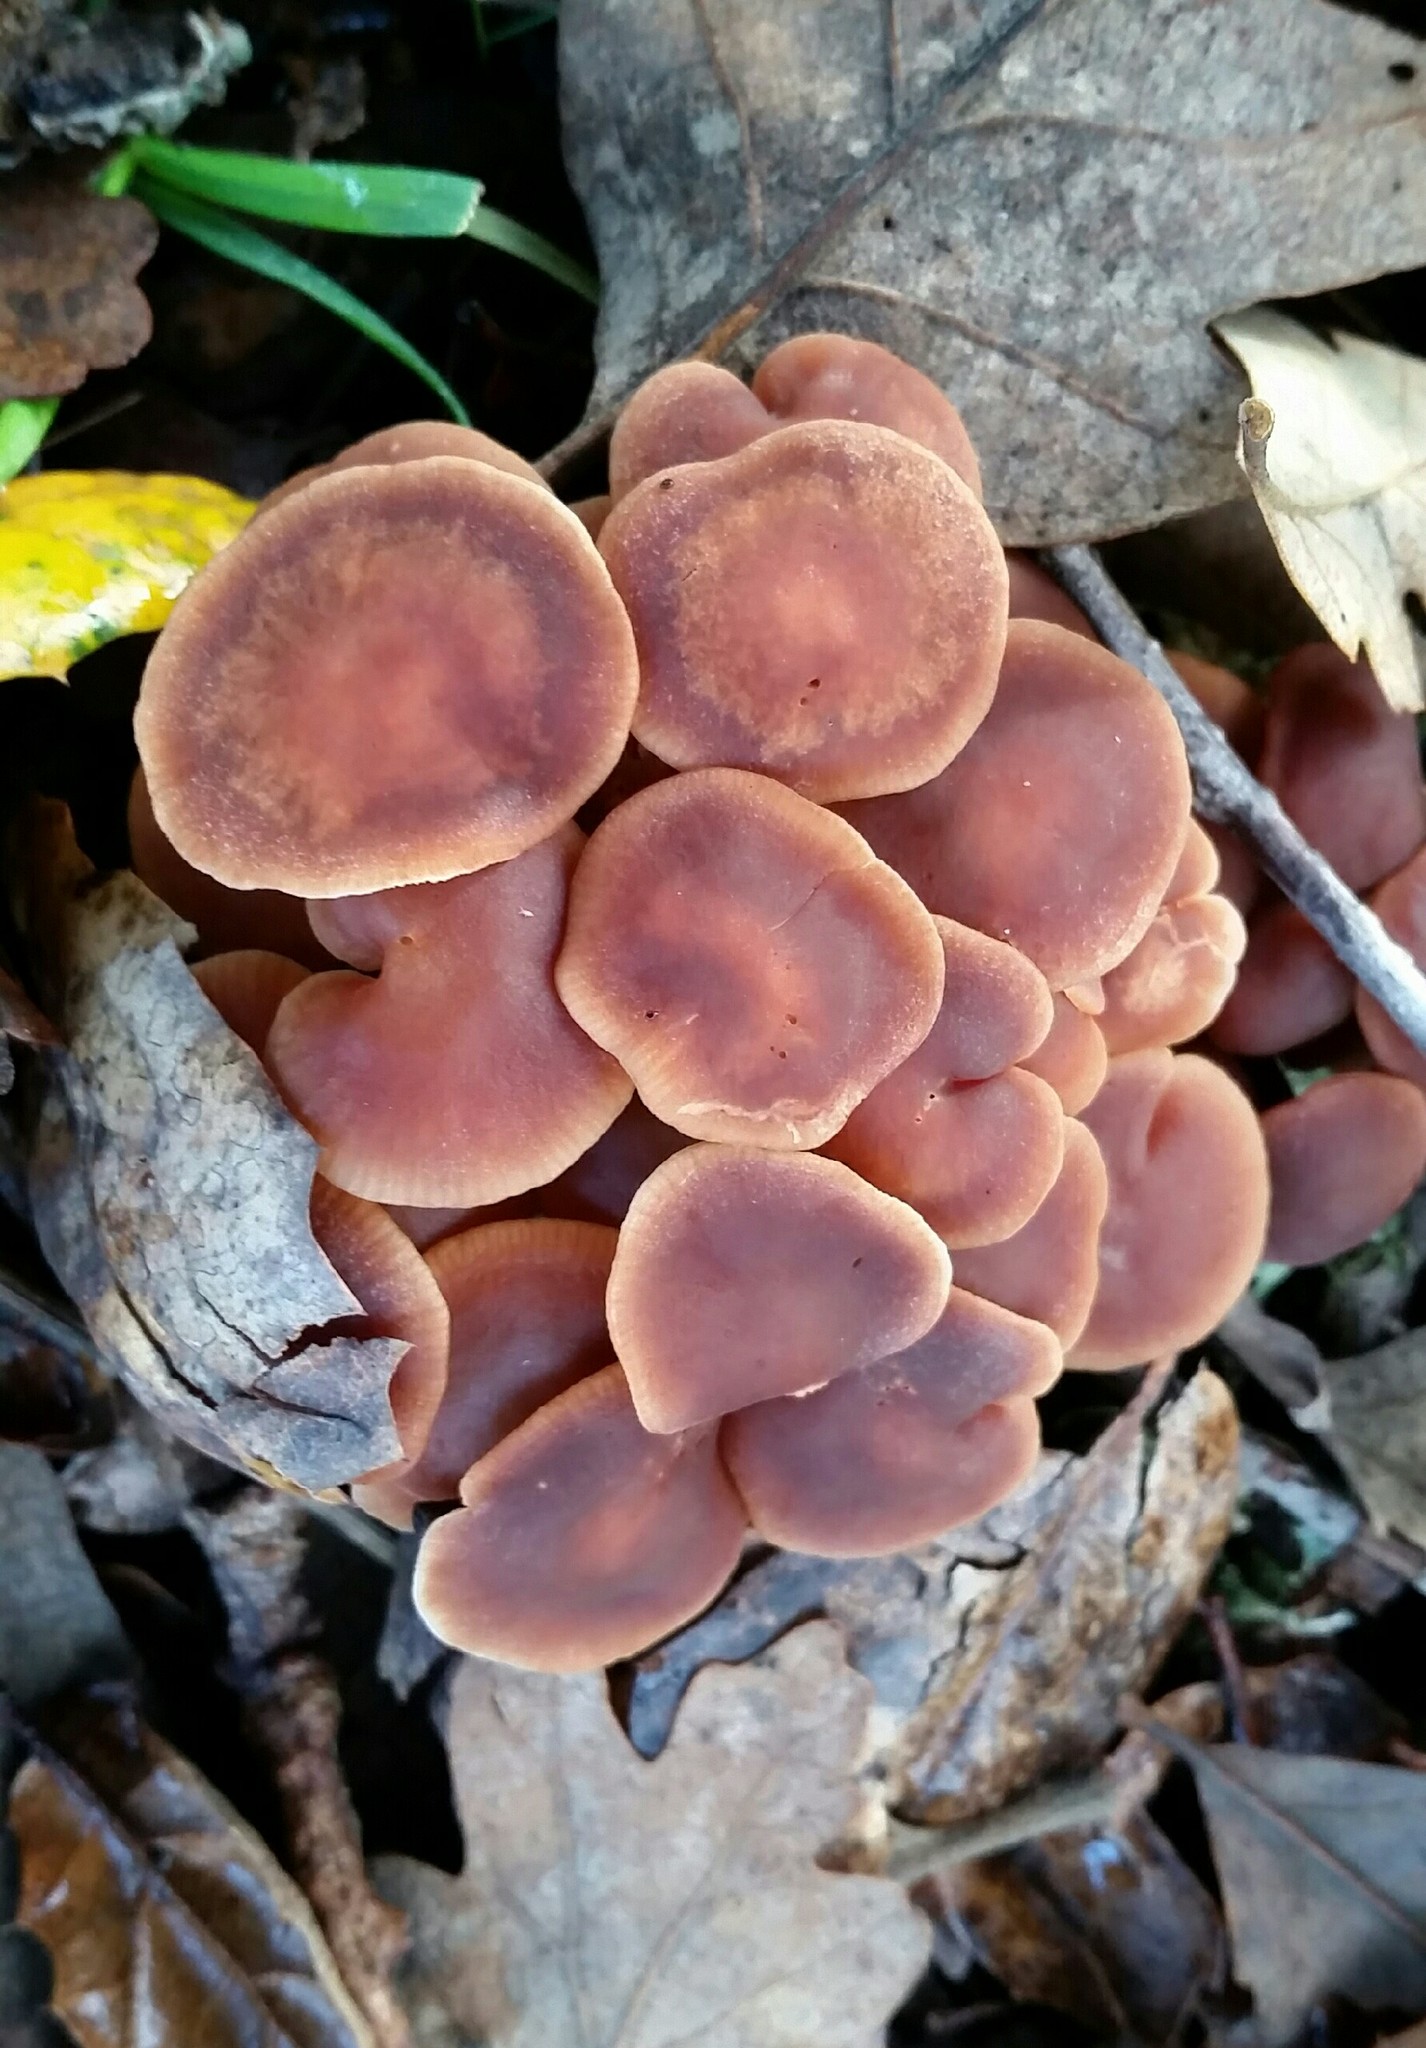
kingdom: Fungi
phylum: Basidiomycota
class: Agaricomycetes
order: Agaricales
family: Omphalotaceae
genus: Gymnopus
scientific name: Gymnopus brassicolens
